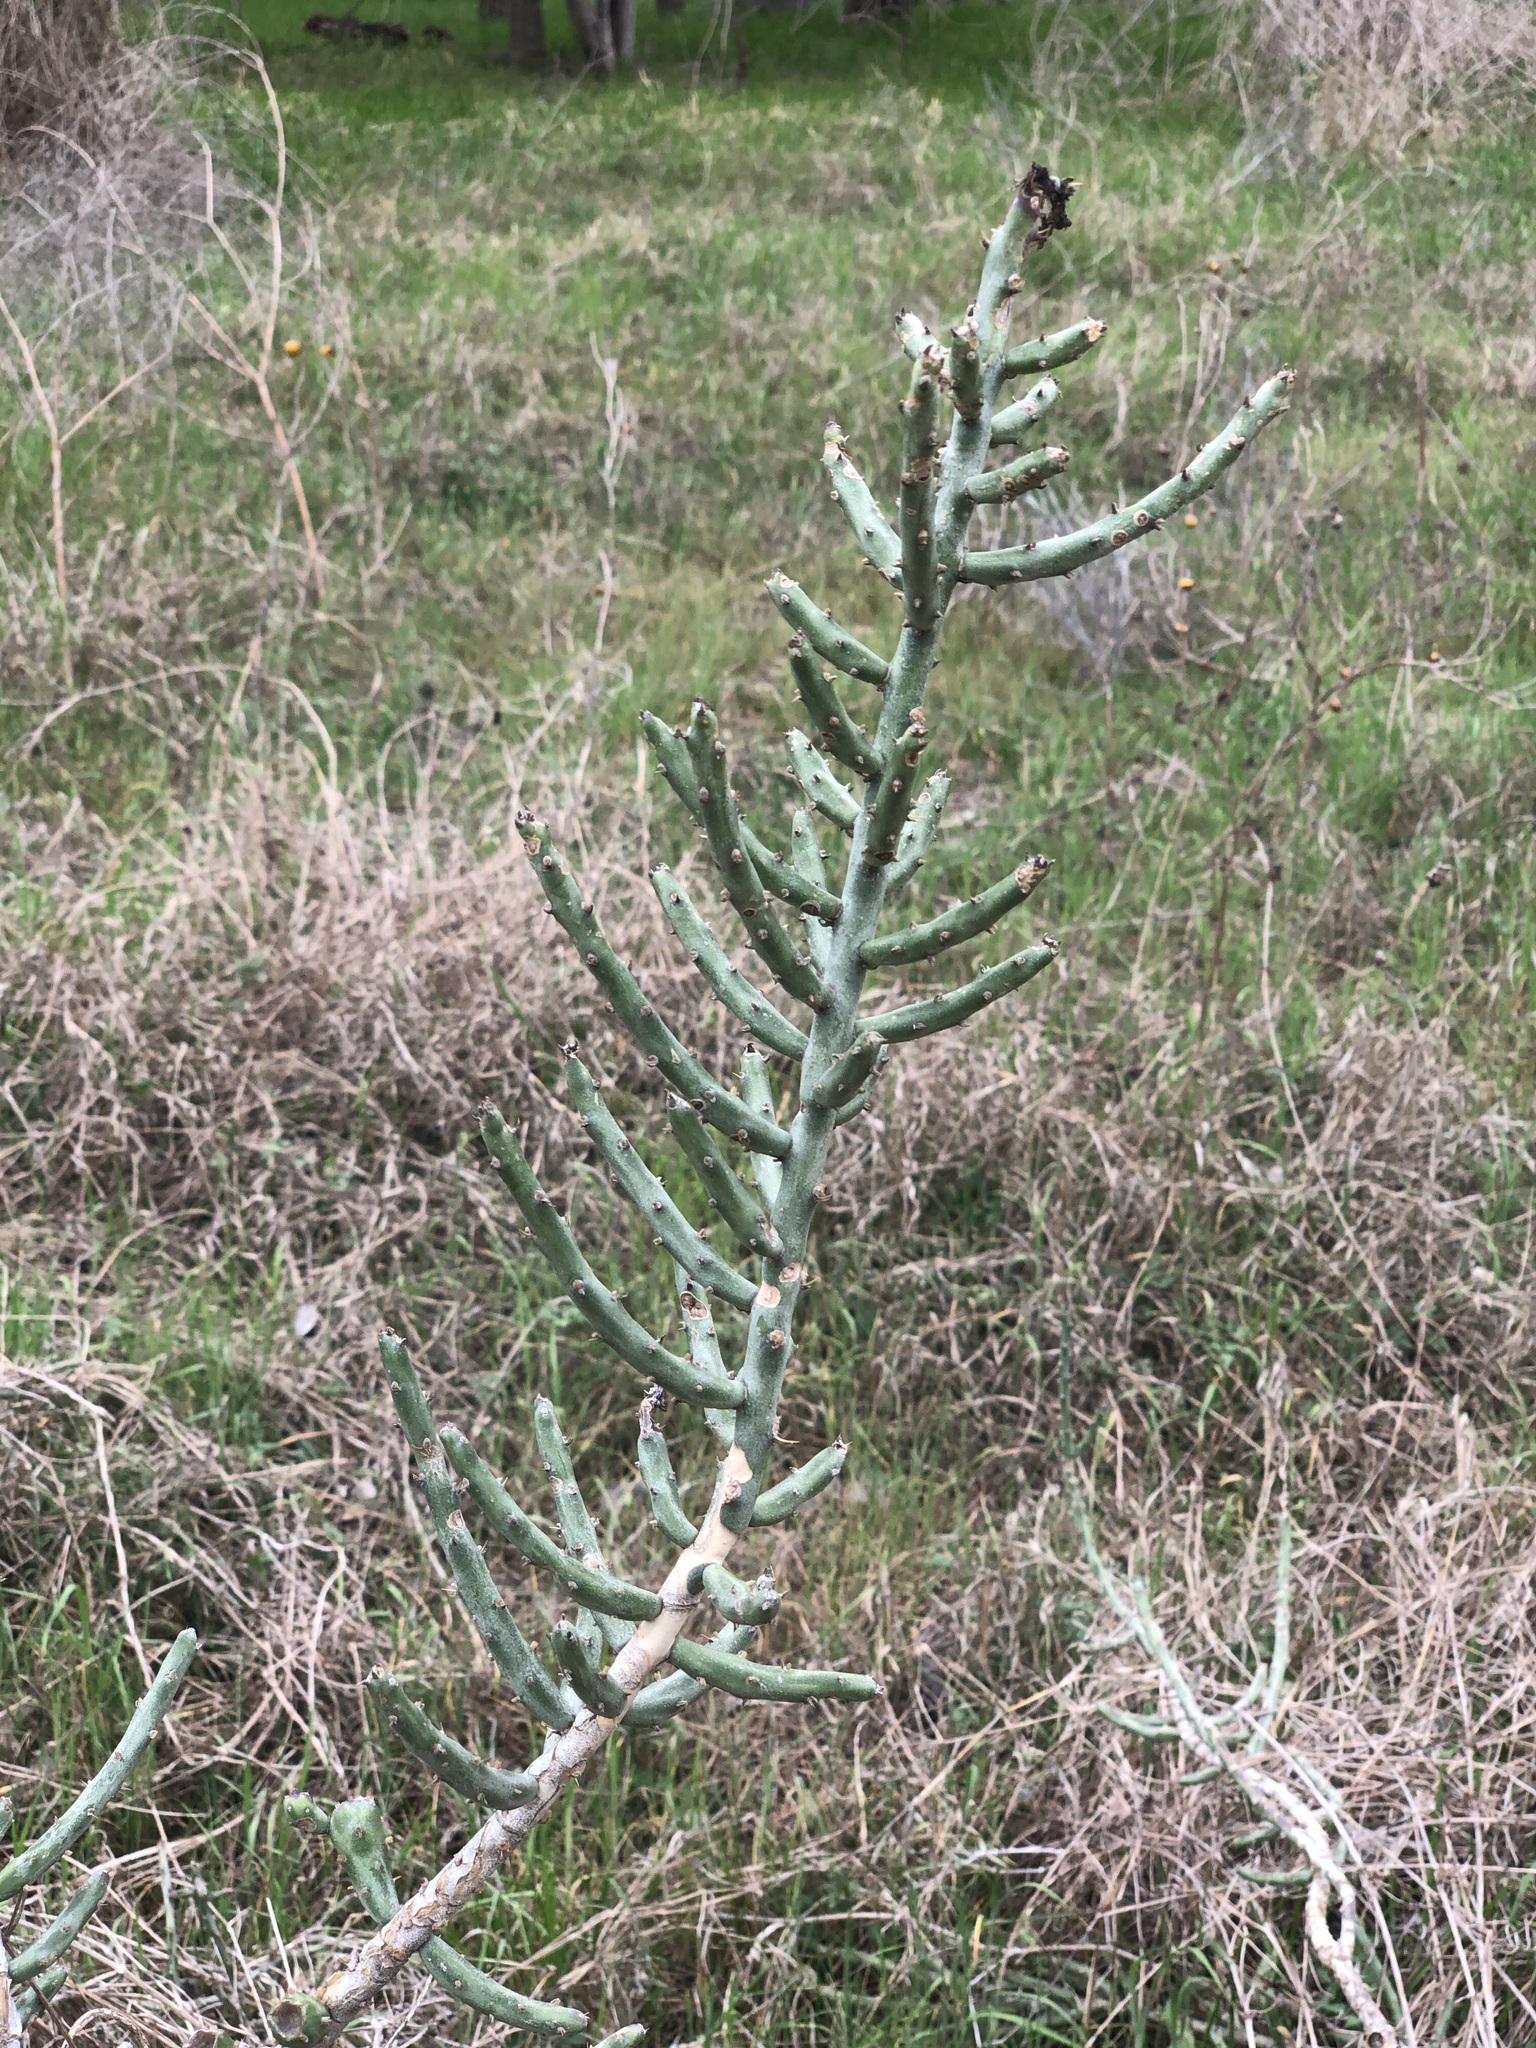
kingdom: Plantae
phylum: Tracheophyta
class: Magnoliopsida
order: Caryophyllales
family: Cactaceae
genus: Cylindropuntia
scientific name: Cylindropuntia leptocaulis
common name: Christmas cactus
